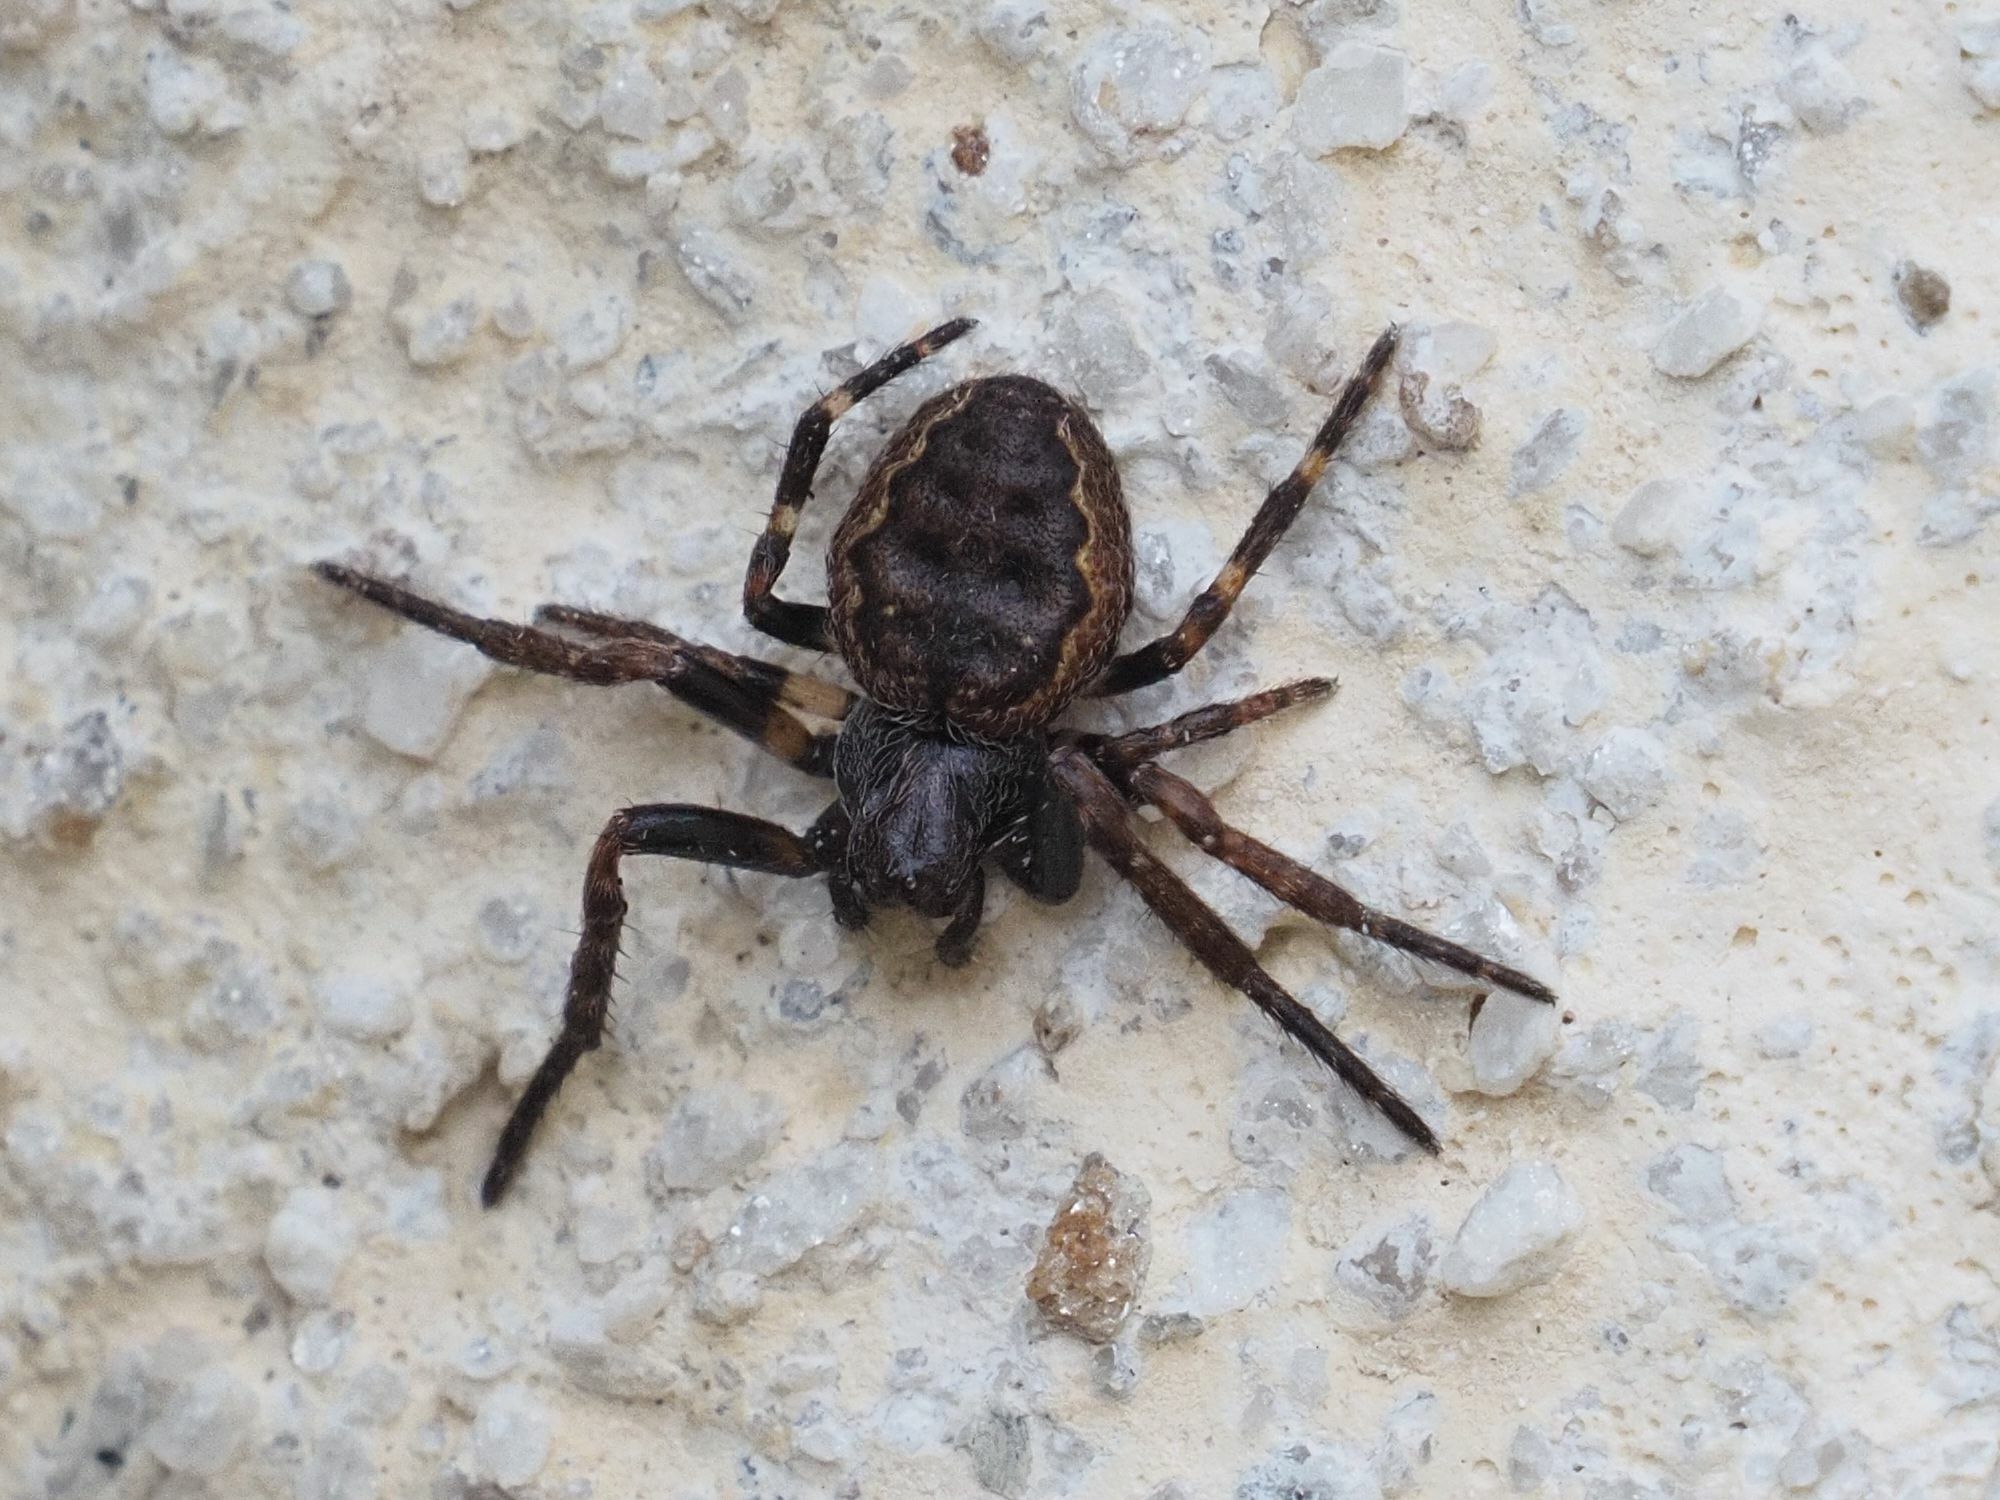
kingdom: Animalia
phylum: Arthropoda
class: Arachnida
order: Araneae
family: Araneidae
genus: Nuctenea
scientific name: Nuctenea umbratica
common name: Toad spider
